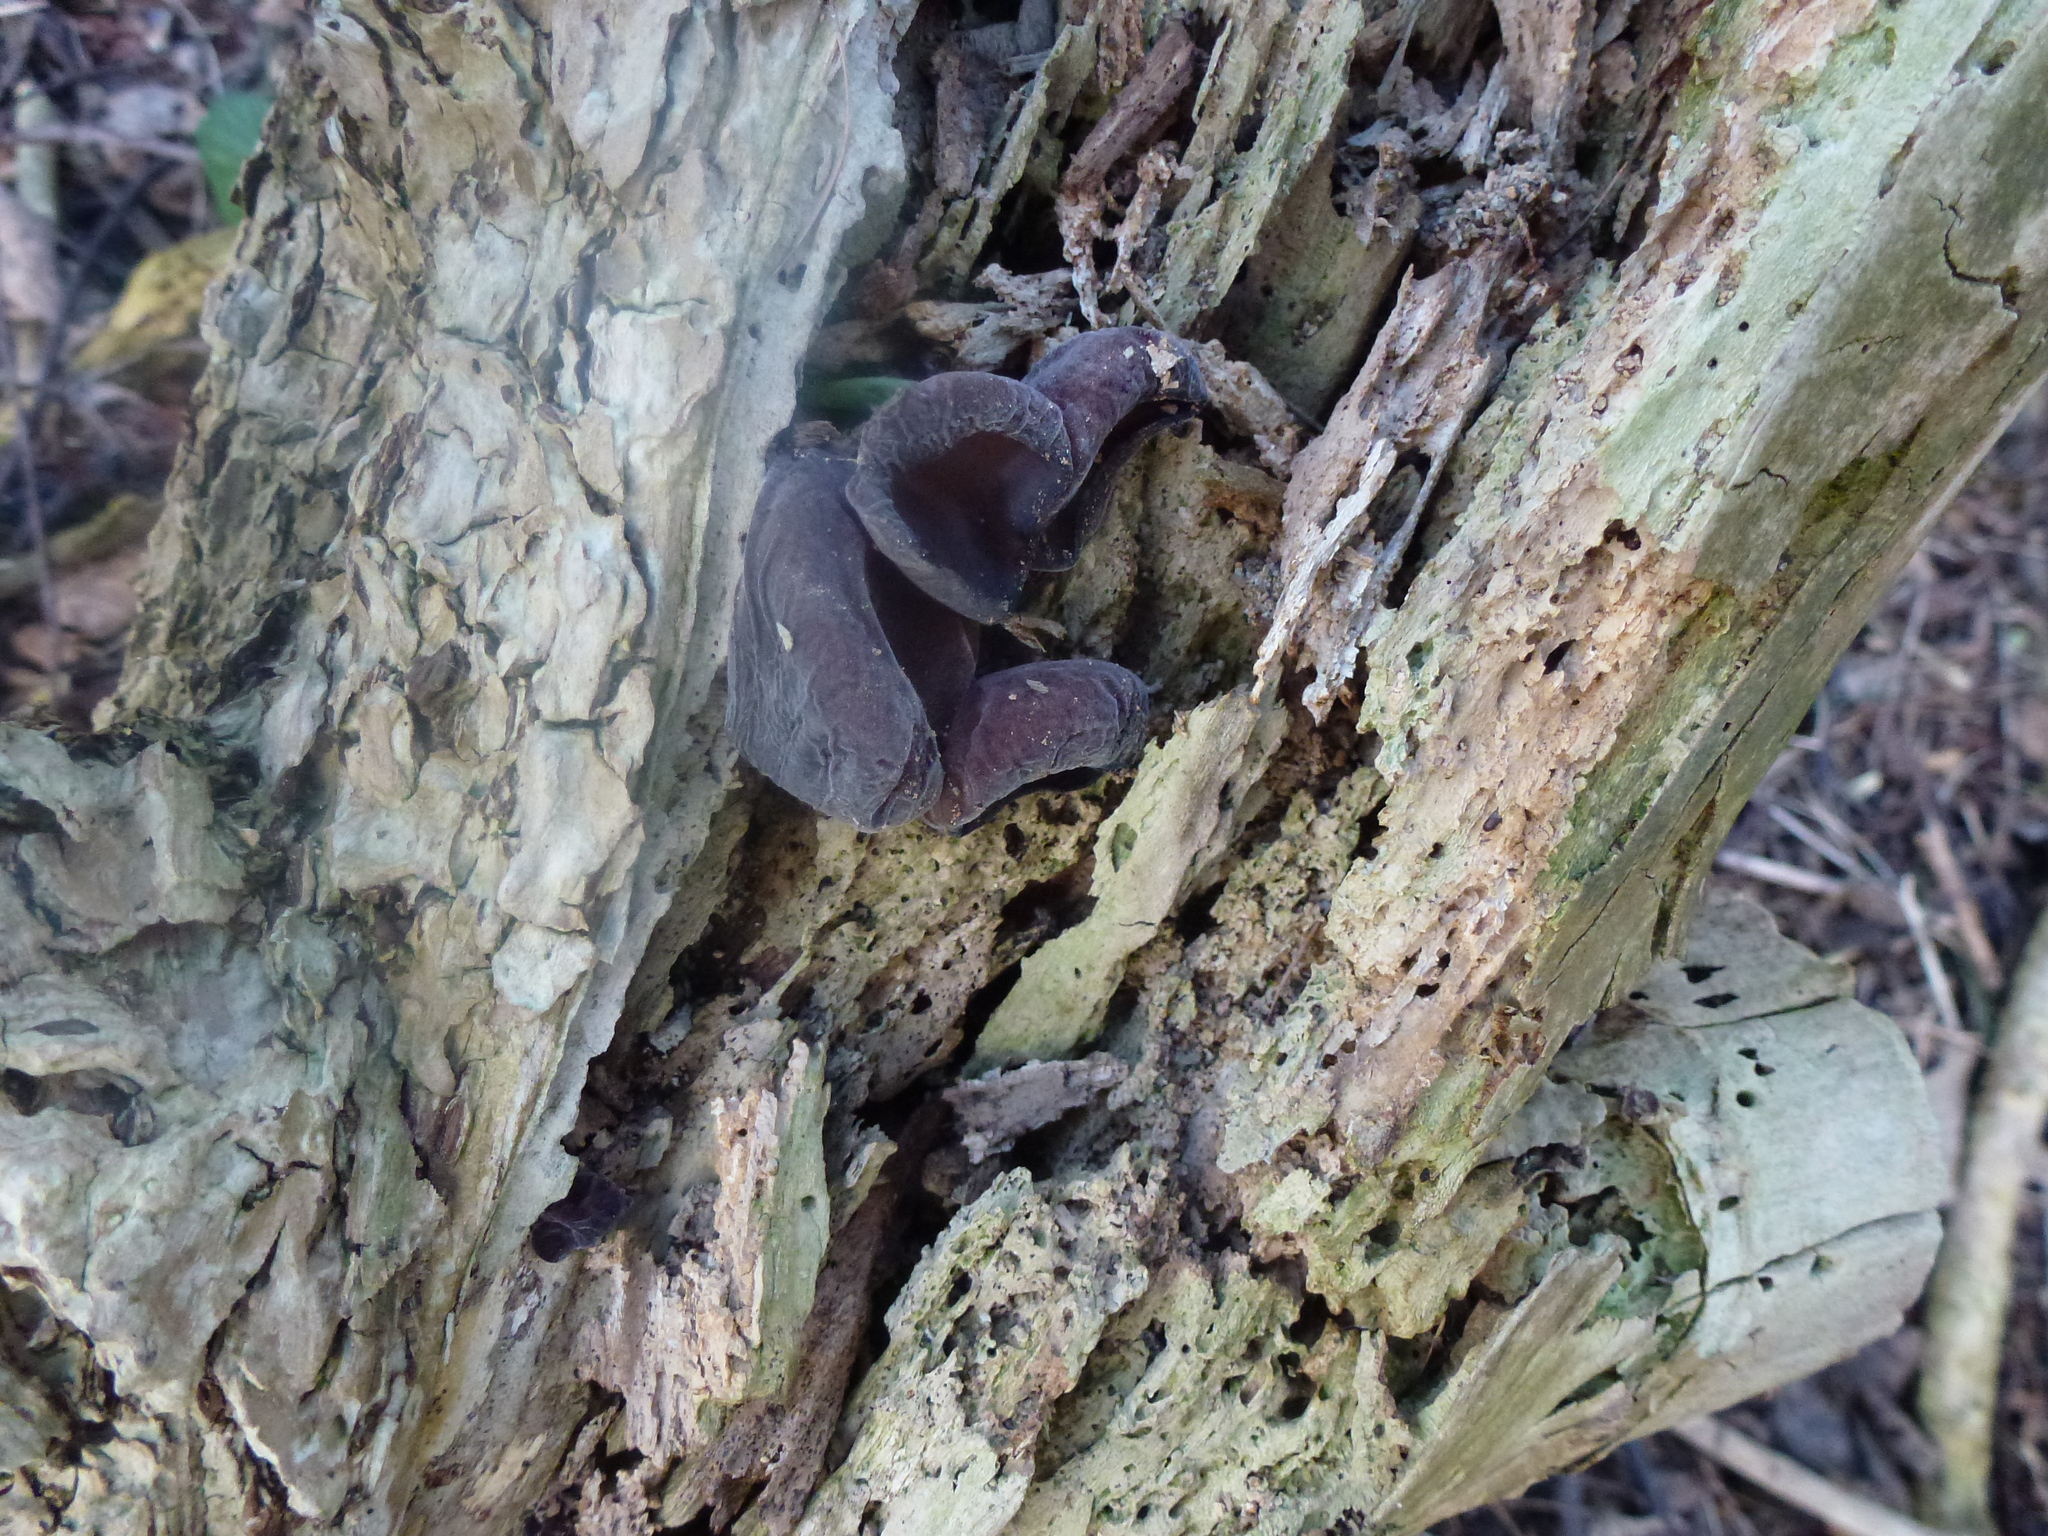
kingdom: Fungi
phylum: Basidiomycota
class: Agaricomycetes
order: Auriculariales
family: Auriculariaceae
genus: Auricularia
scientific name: Auricularia auricula-judae
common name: Jelly ear
